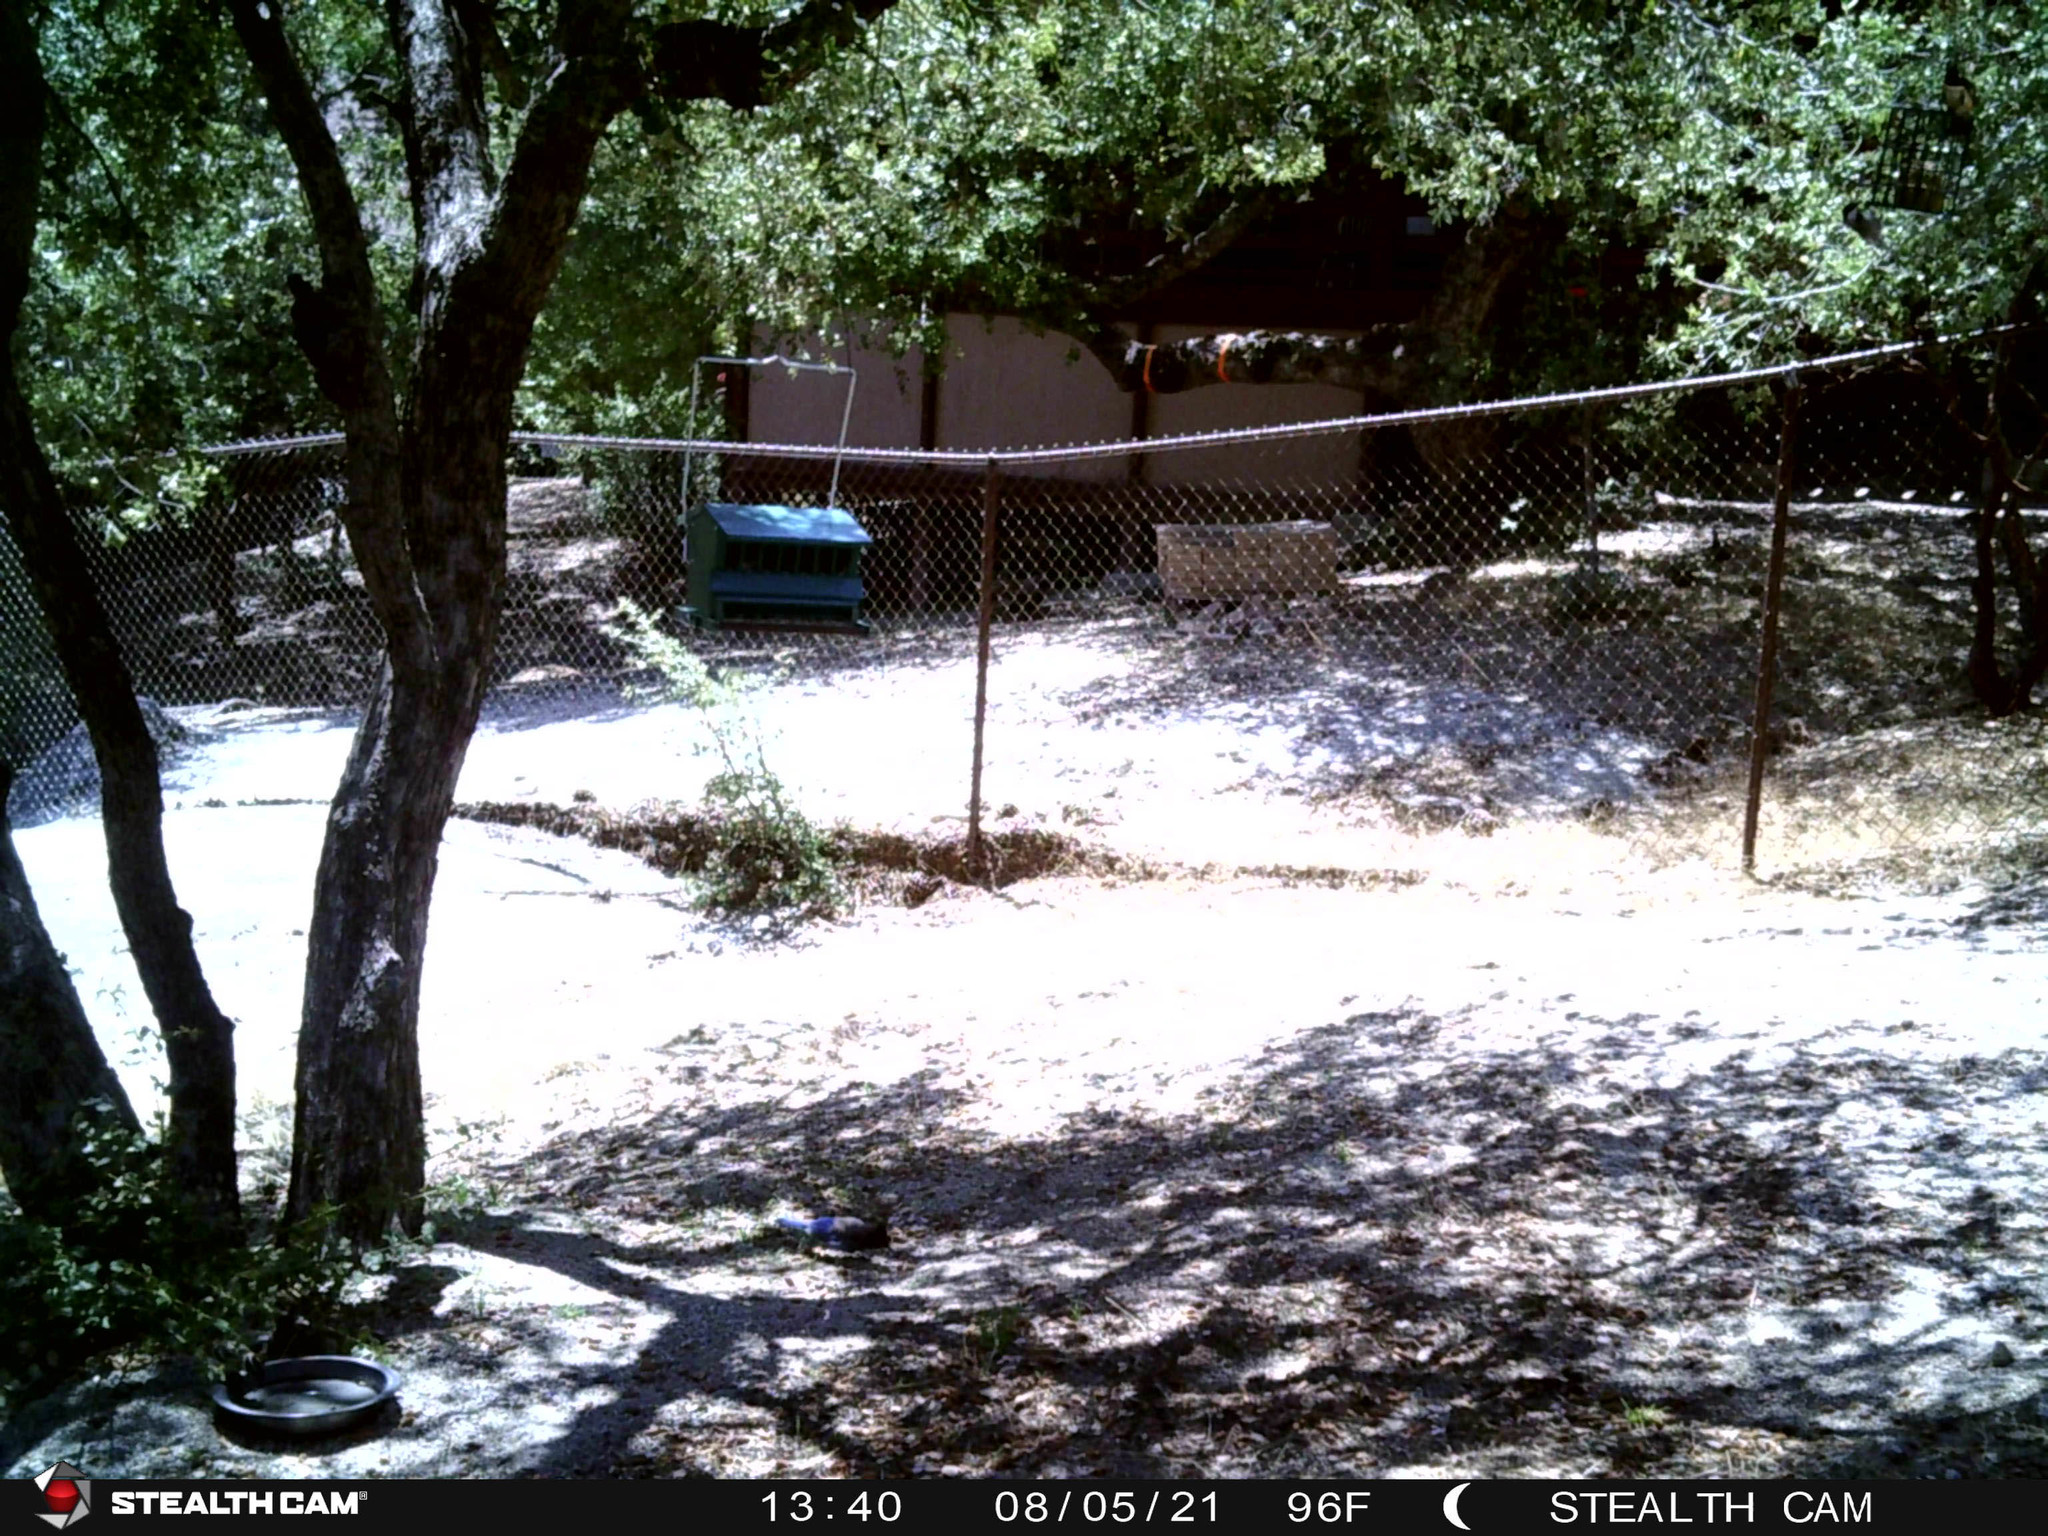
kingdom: Animalia
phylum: Chordata
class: Aves
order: Passeriformes
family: Corvidae
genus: Cyanocitta
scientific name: Cyanocitta stelleri
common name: Steller's jay
